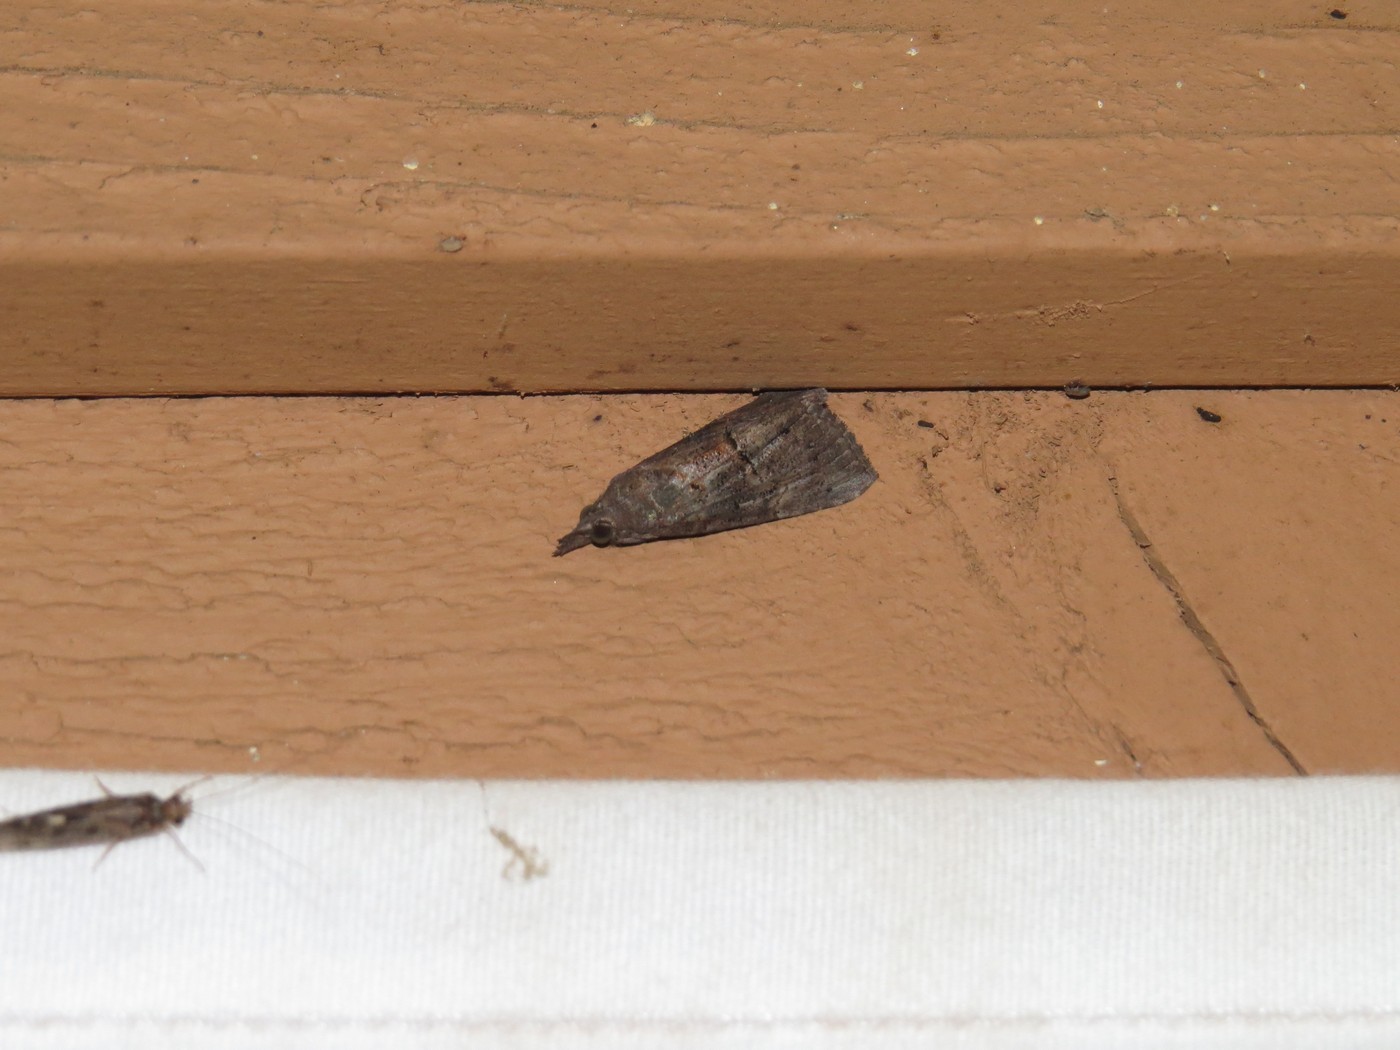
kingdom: Animalia
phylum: Arthropoda
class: Insecta
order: Lepidoptera
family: Erebidae
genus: Hypena
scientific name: Hypena scabra
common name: Green cloverworm
